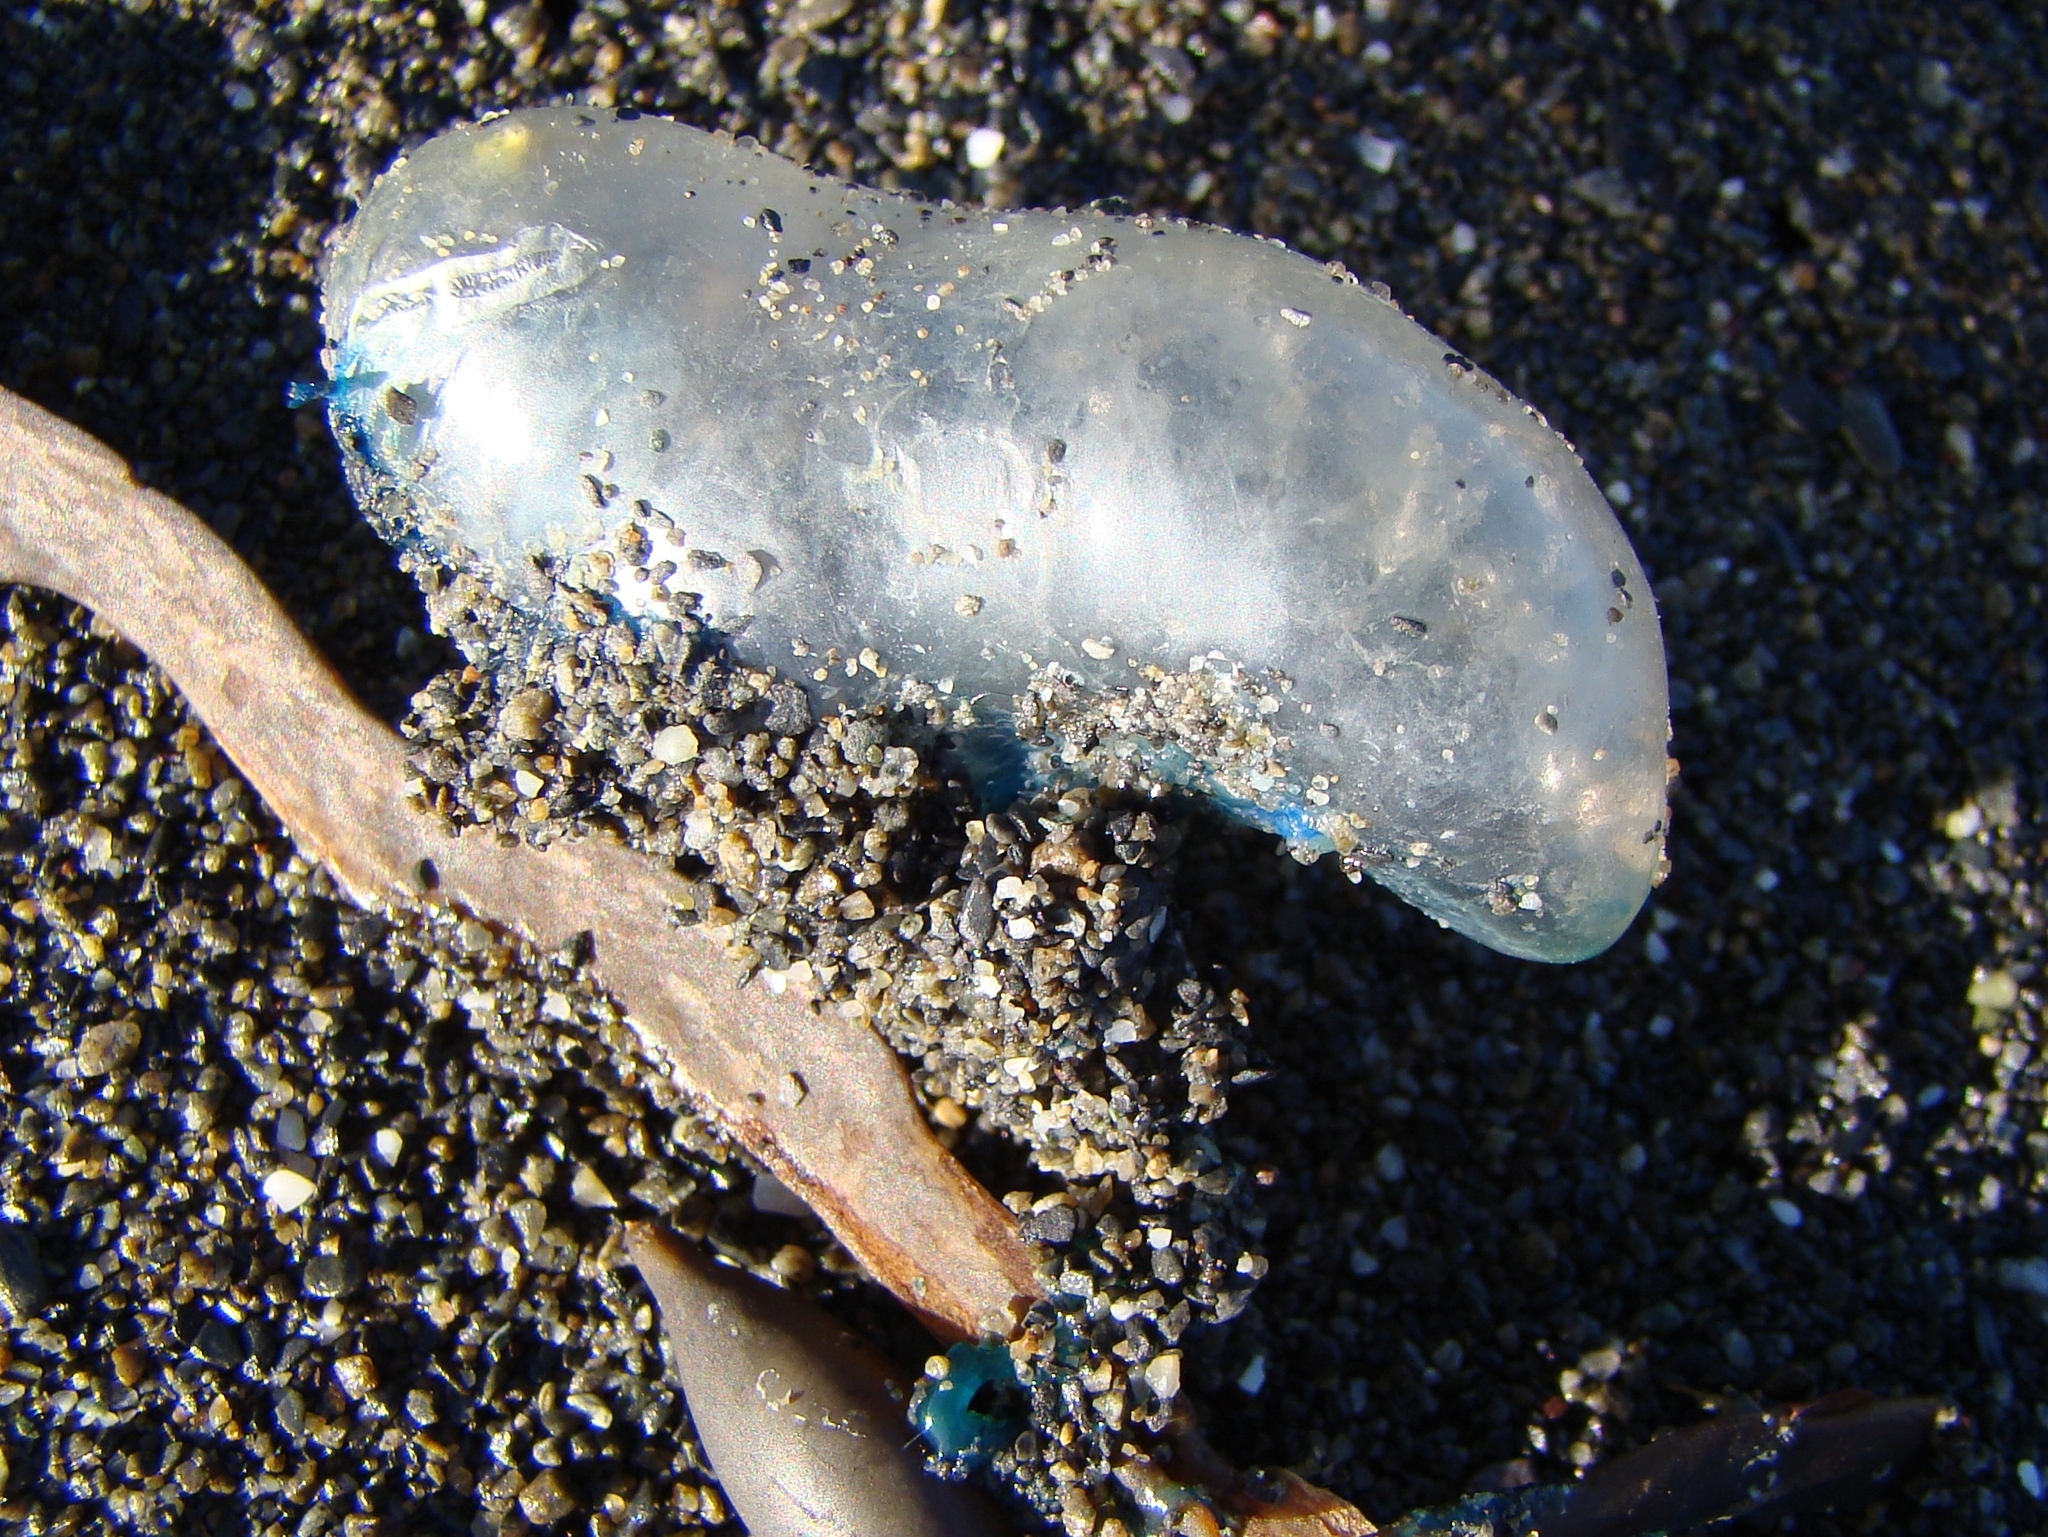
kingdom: Animalia
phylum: Cnidaria
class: Hydrozoa
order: Siphonophorae
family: Physaliidae
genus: Physalia
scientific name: Physalia physalis
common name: Portuguese man-of-war
